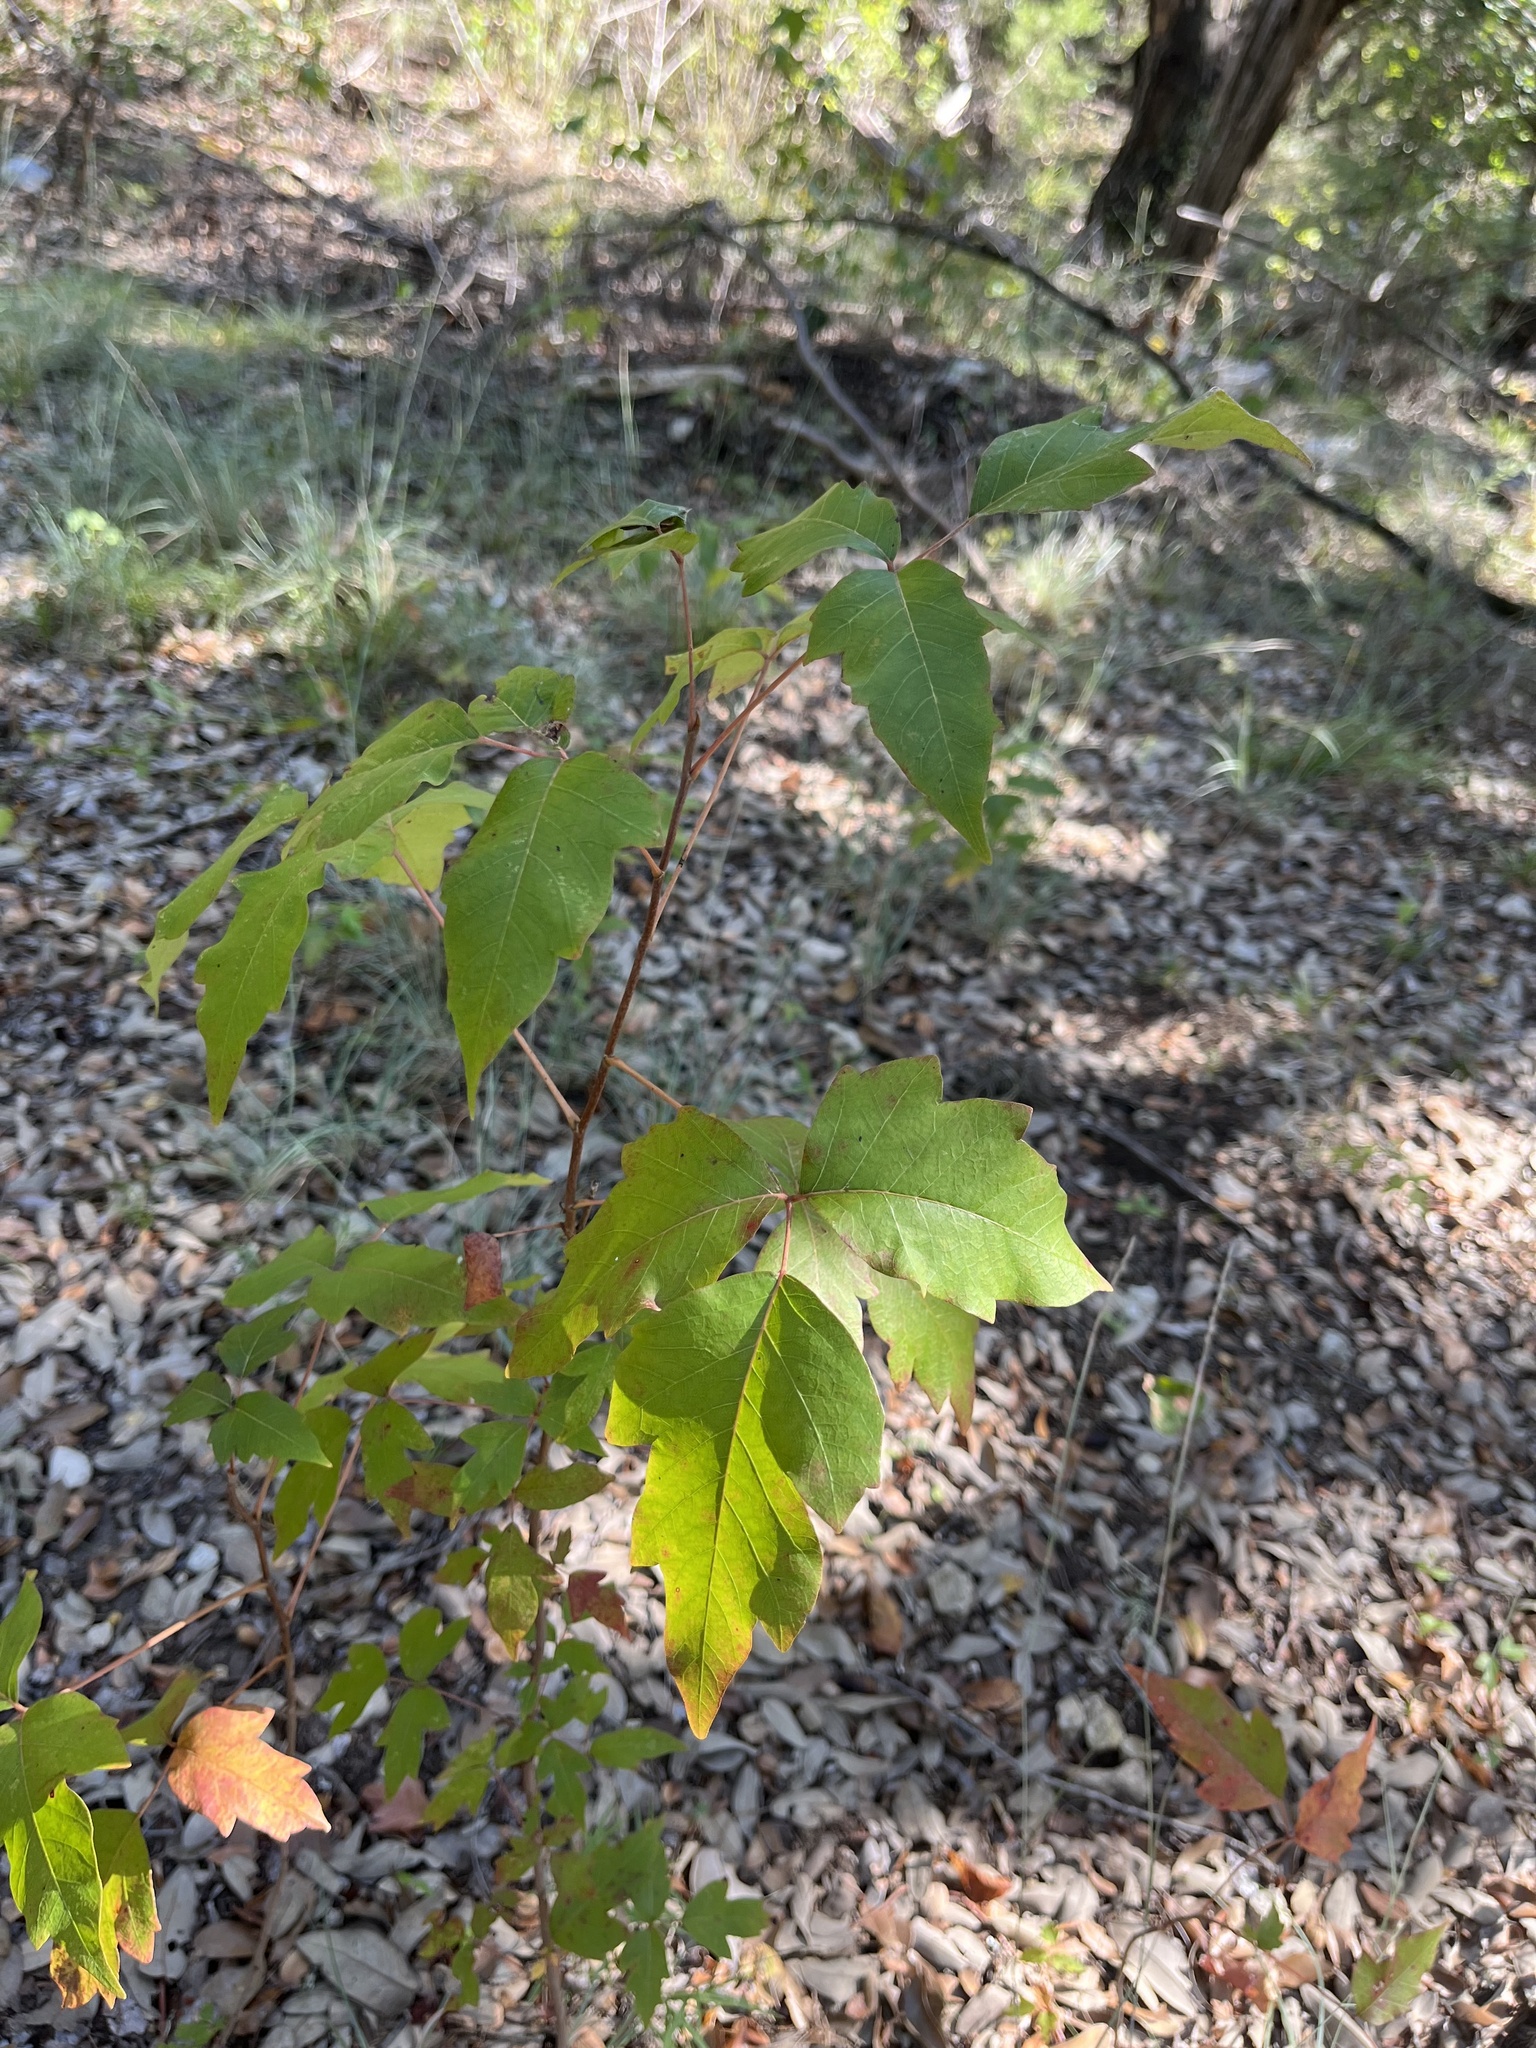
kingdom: Plantae
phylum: Tracheophyta
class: Magnoliopsida
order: Sapindales
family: Anacardiaceae
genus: Toxicodendron
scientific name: Toxicodendron radicans
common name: Poison ivy
